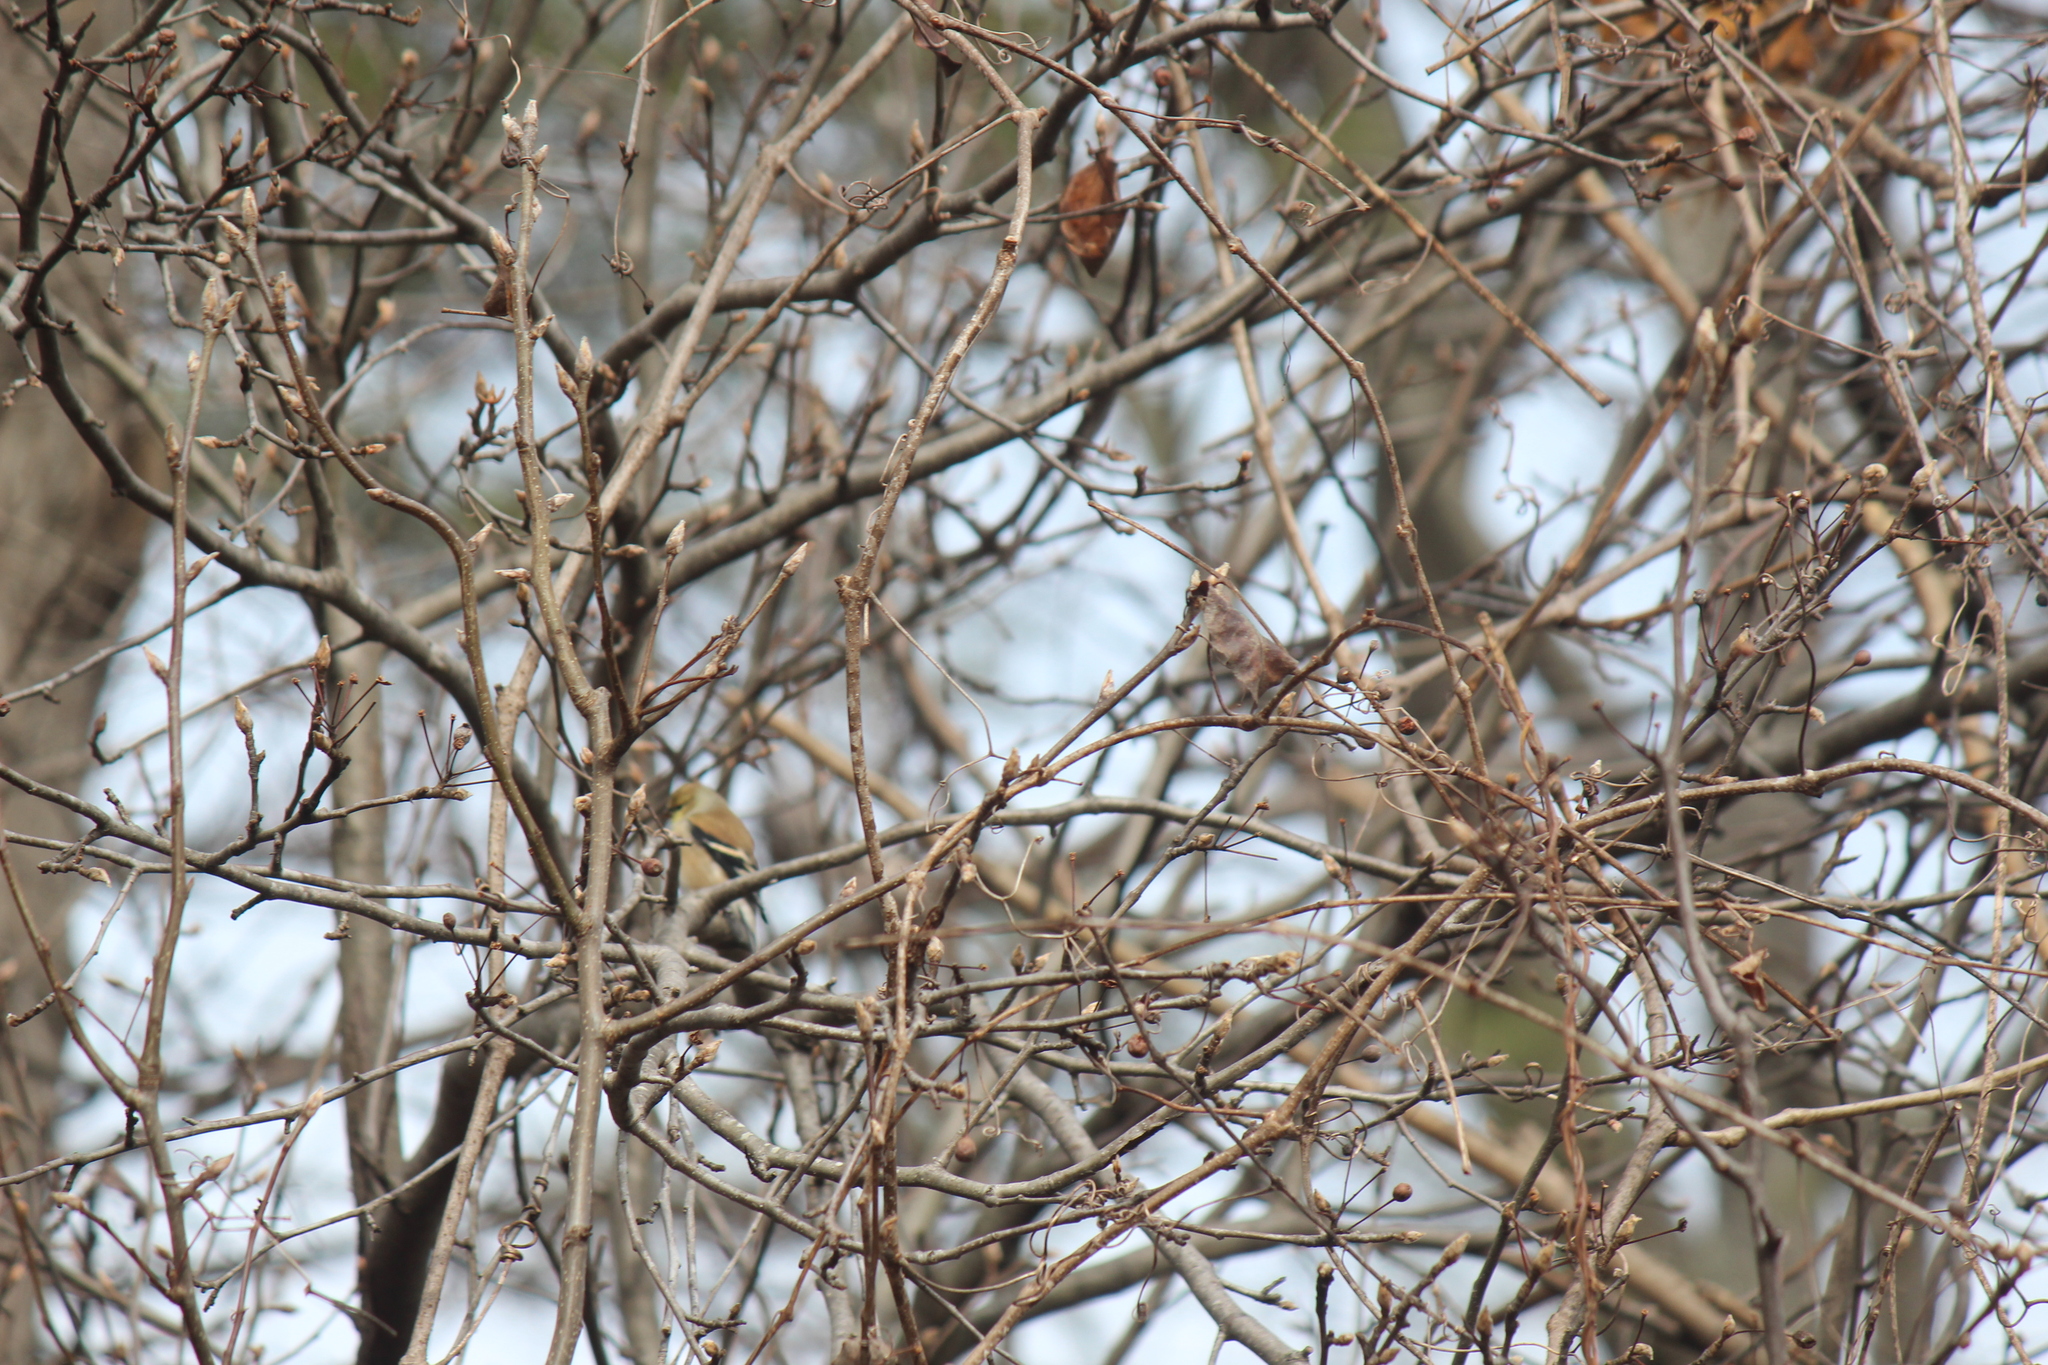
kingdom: Animalia
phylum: Chordata
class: Aves
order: Passeriformes
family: Fringillidae
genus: Spinus
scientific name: Spinus tristis
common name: American goldfinch
